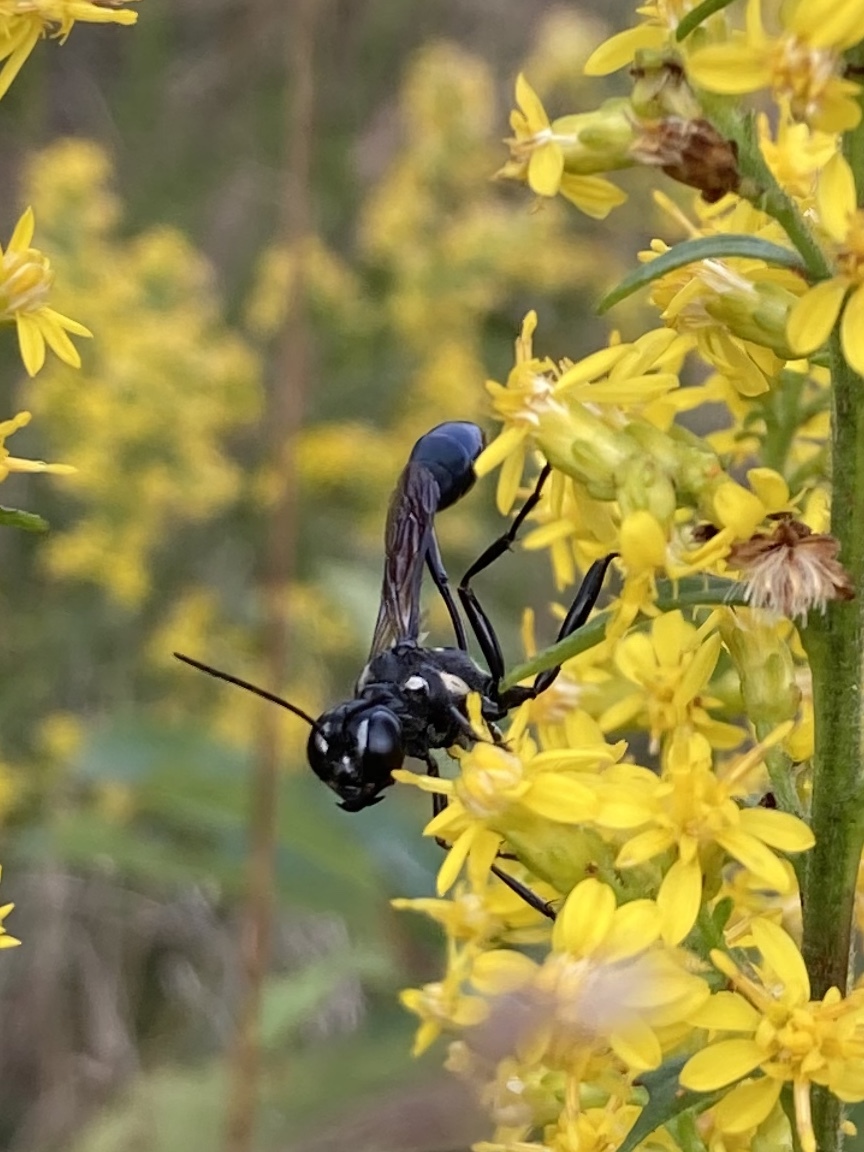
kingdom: Animalia
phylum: Arthropoda
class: Insecta
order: Hymenoptera
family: Sphecidae
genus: Eremnophila
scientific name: Eremnophila aureonotata
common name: Gold-marked thread-waisted wasp
